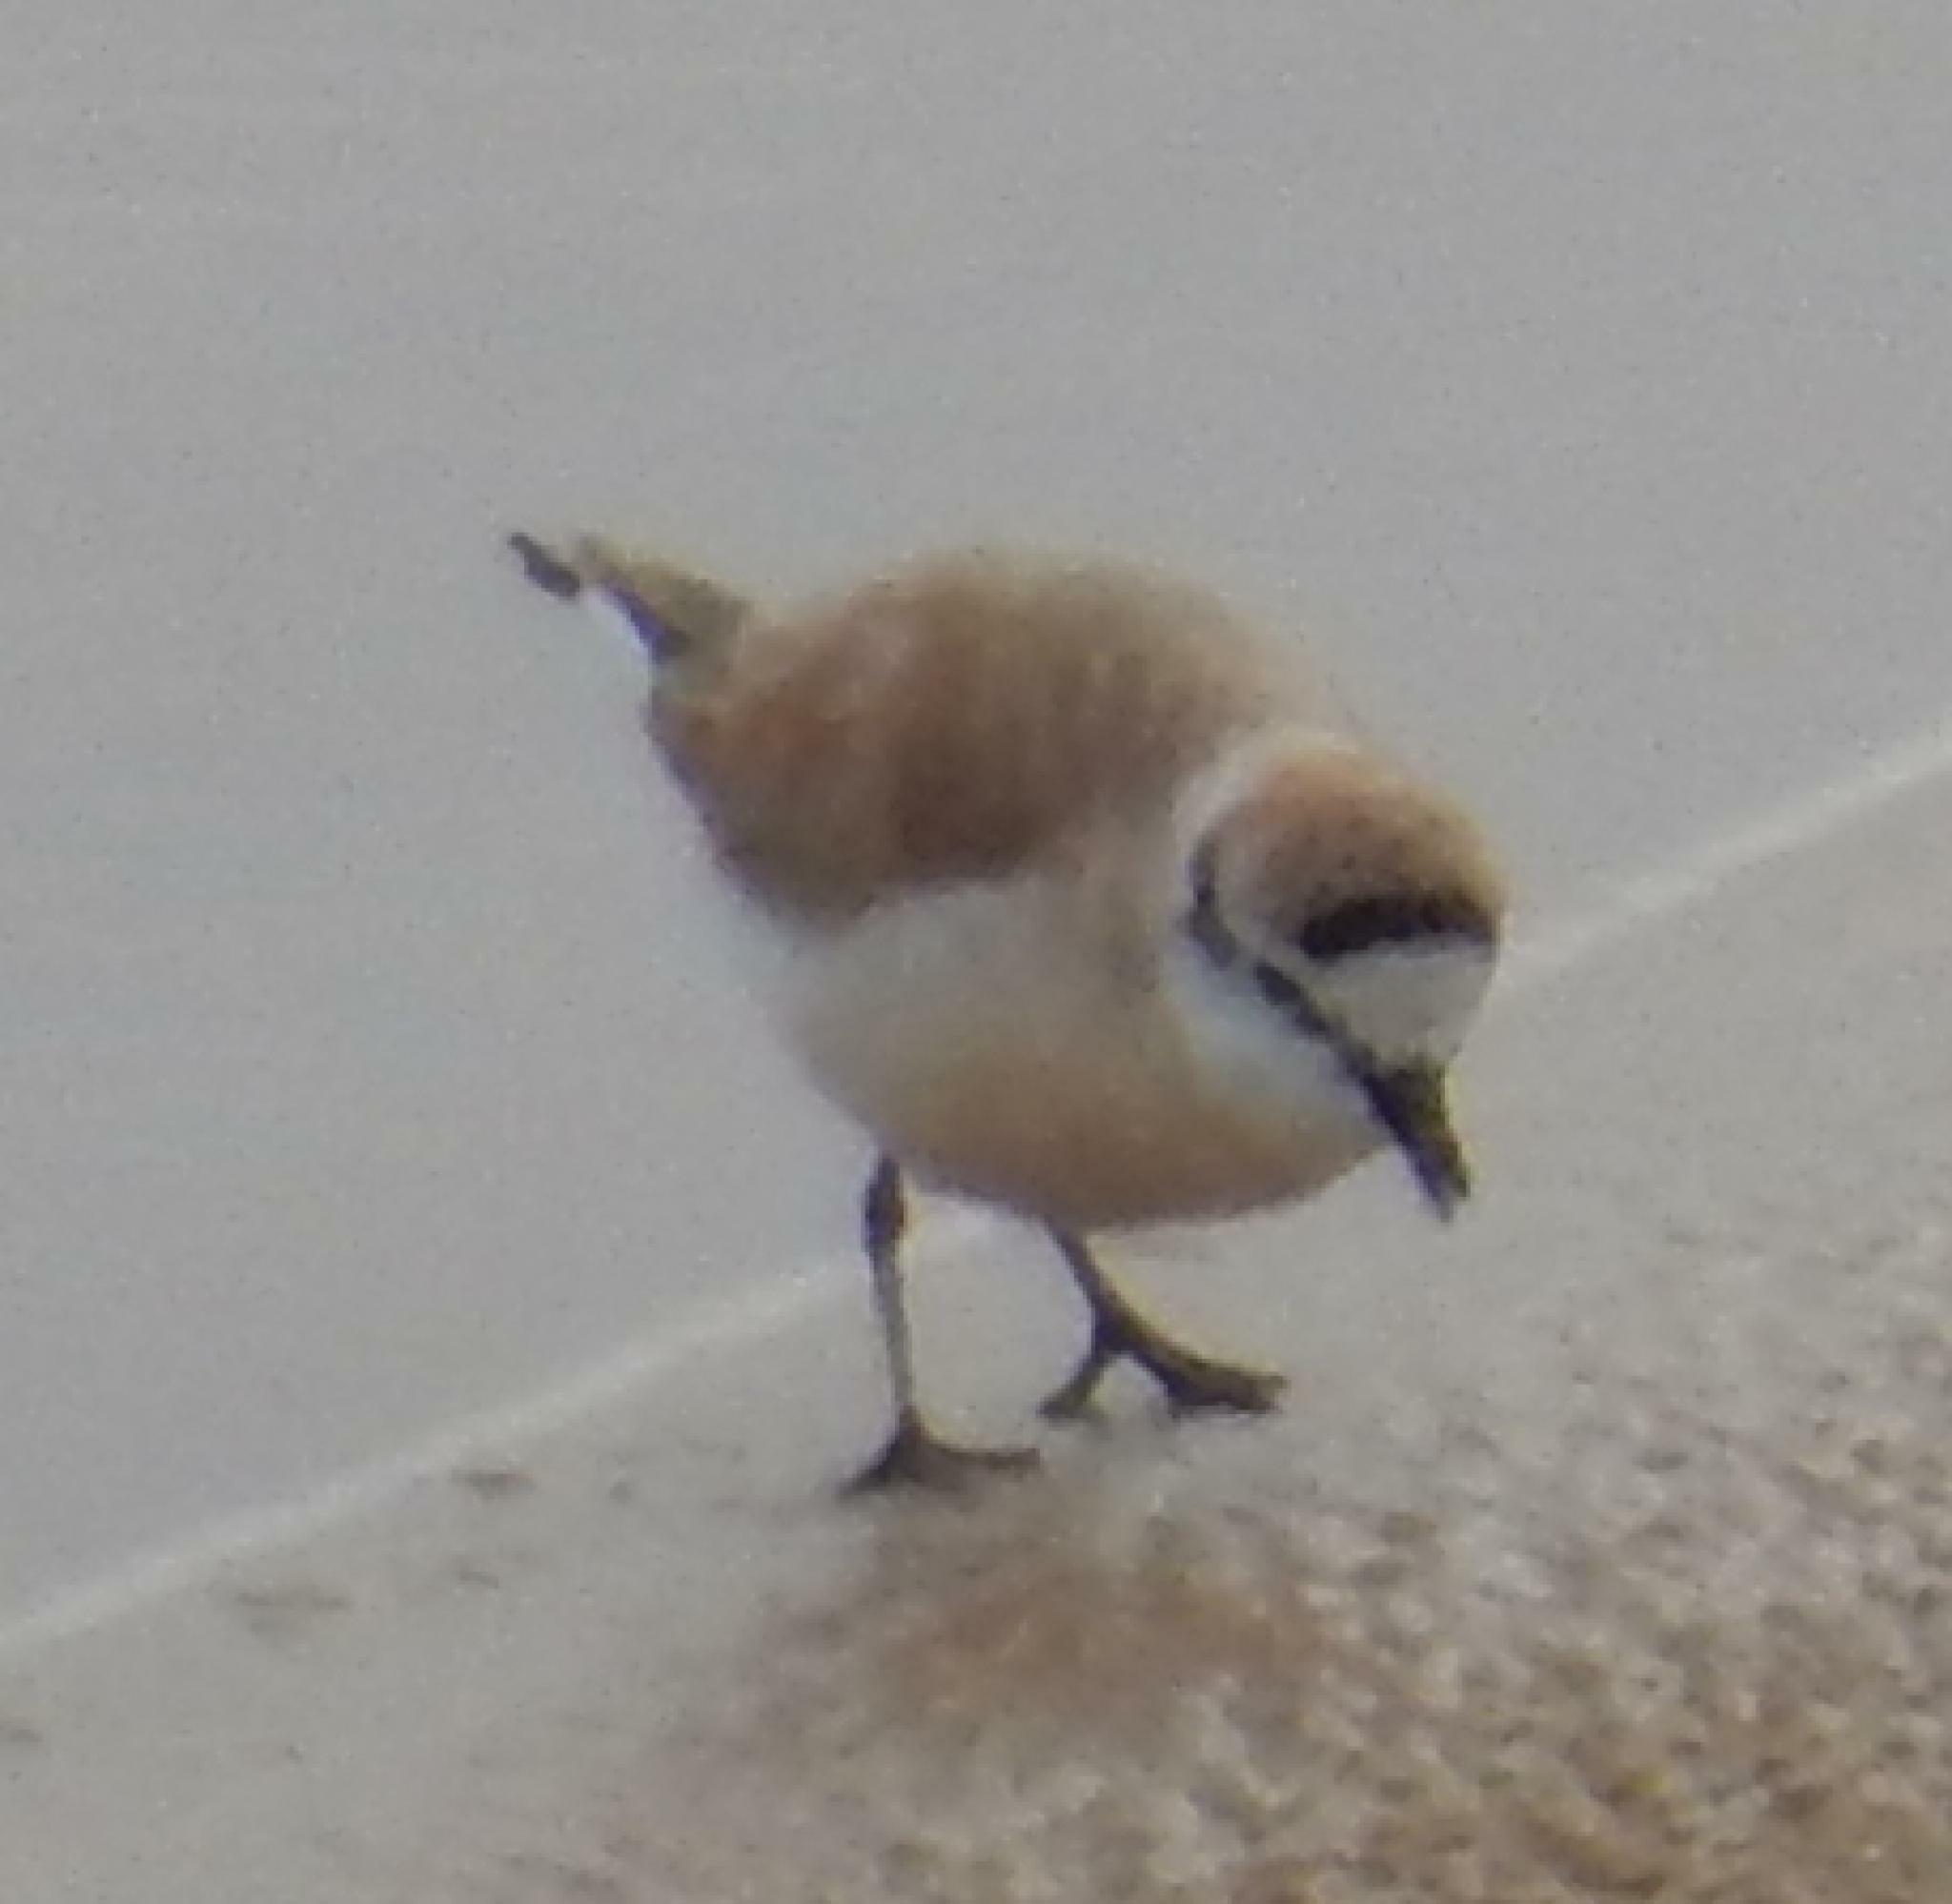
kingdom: Animalia
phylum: Chordata
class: Aves
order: Charadriiformes
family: Charadriidae
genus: Anarhynchus
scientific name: Anarhynchus
